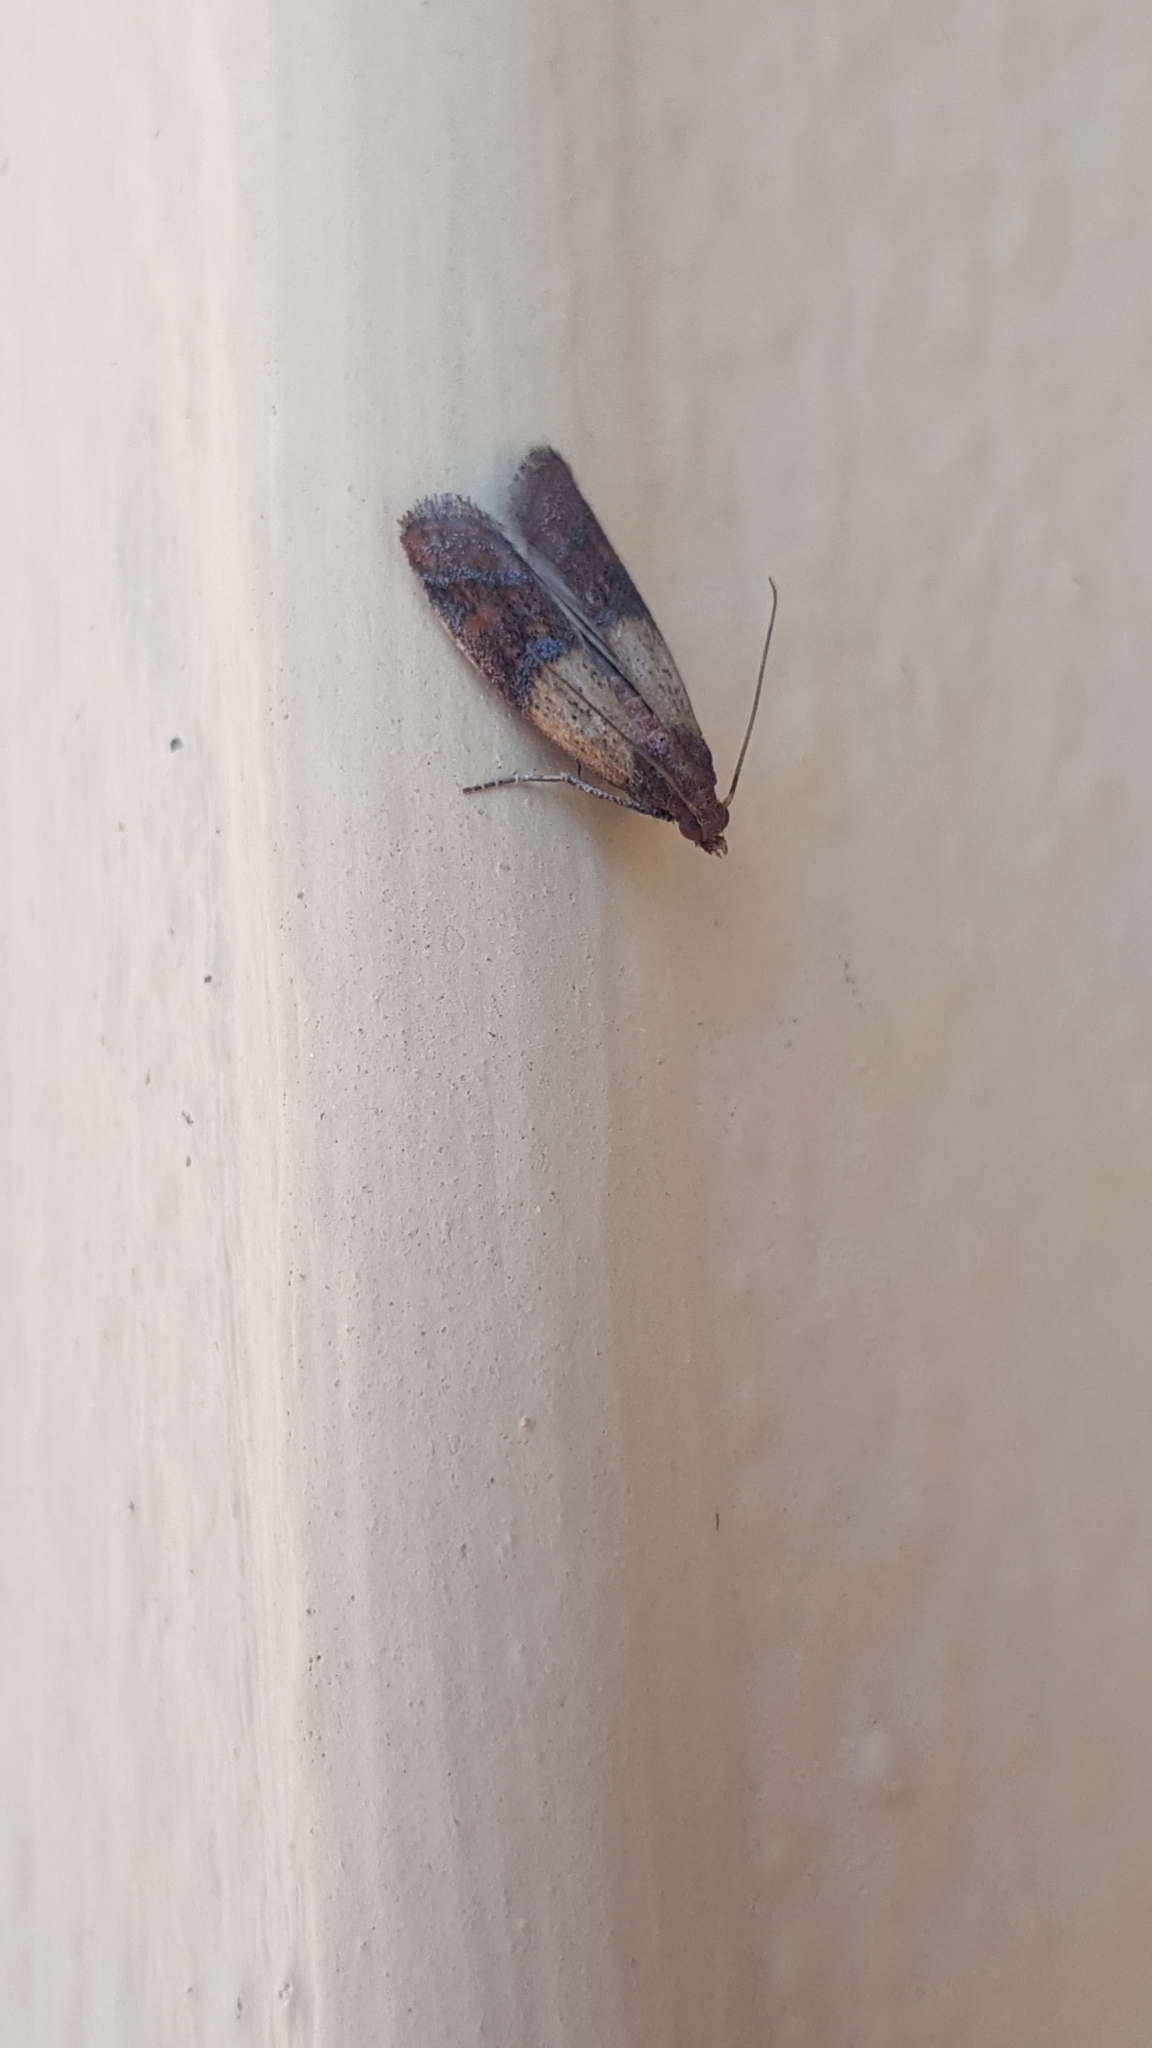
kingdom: Animalia
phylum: Arthropoda
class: Insecta
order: Lepidoptera
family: Pyralidae
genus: Plodia
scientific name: Plodia interpunctella
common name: Indian meal moth
